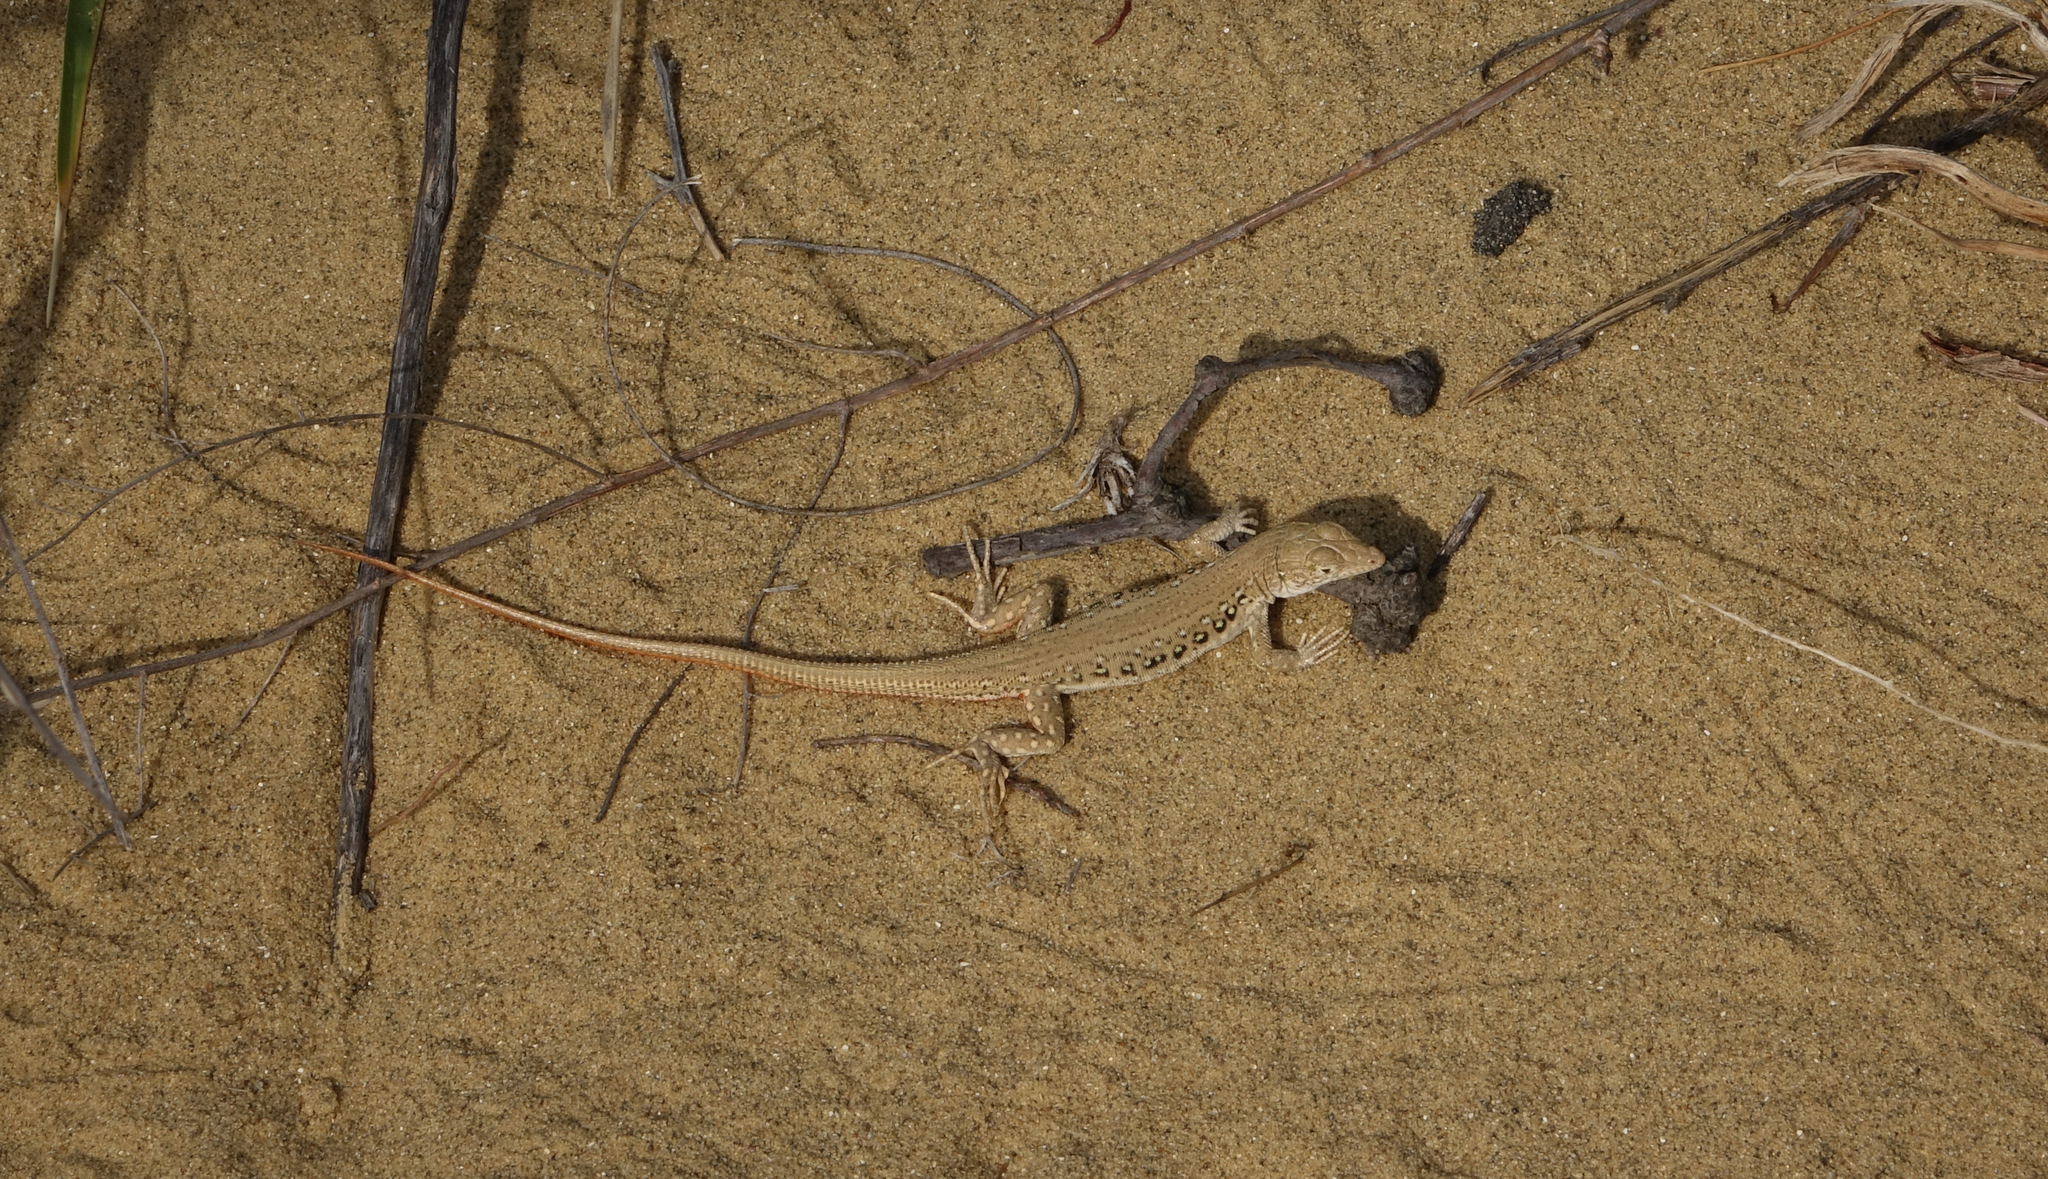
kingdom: Animalia
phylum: Chordata
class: Squamata
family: Lacertidae
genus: Eremias
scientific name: Eremias velox
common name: Central asian racerunner
